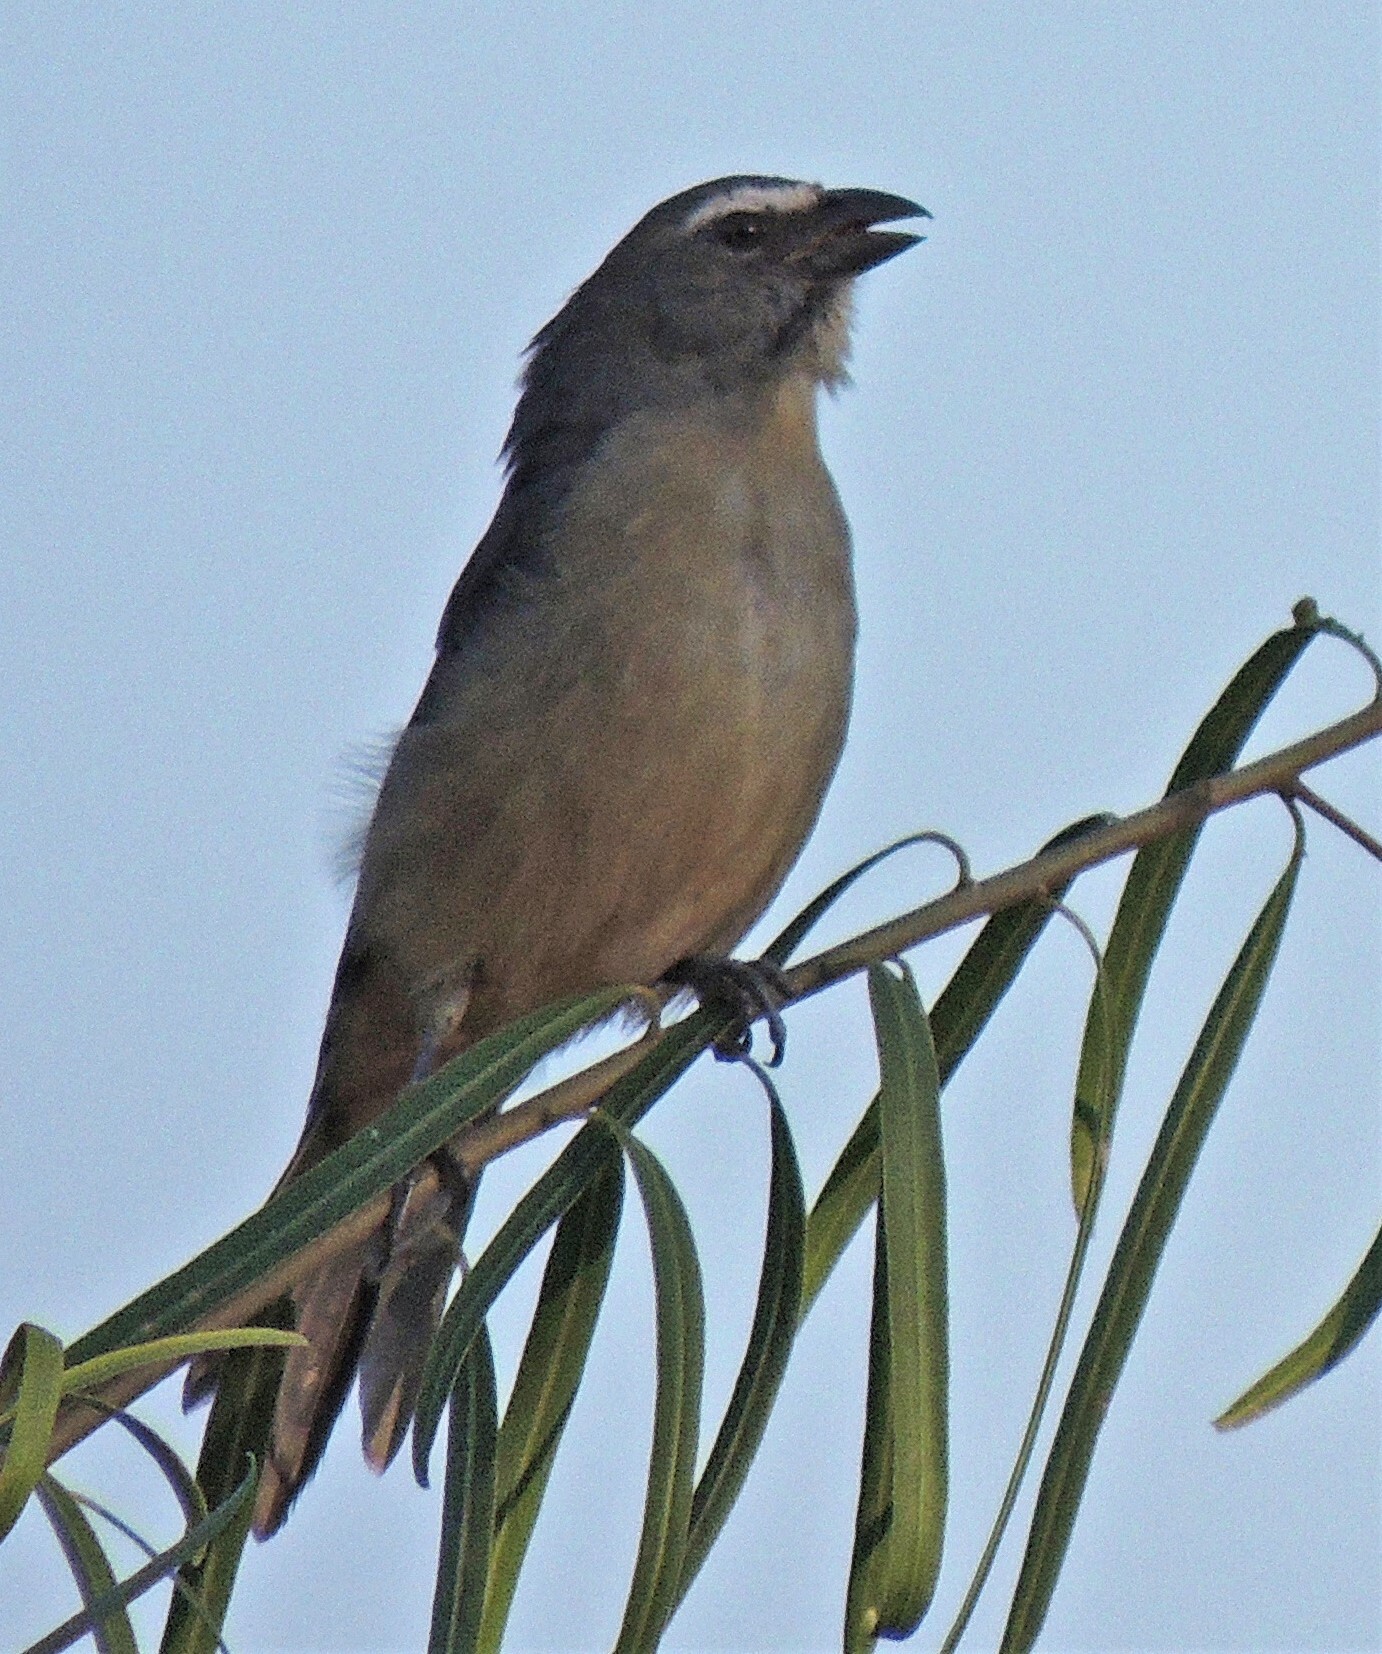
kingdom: Animalia
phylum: Chordata
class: Aves
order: Passeriformes
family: Thraupidae
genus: Saltator
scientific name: Saltator coerulescens
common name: Grayish saltator
